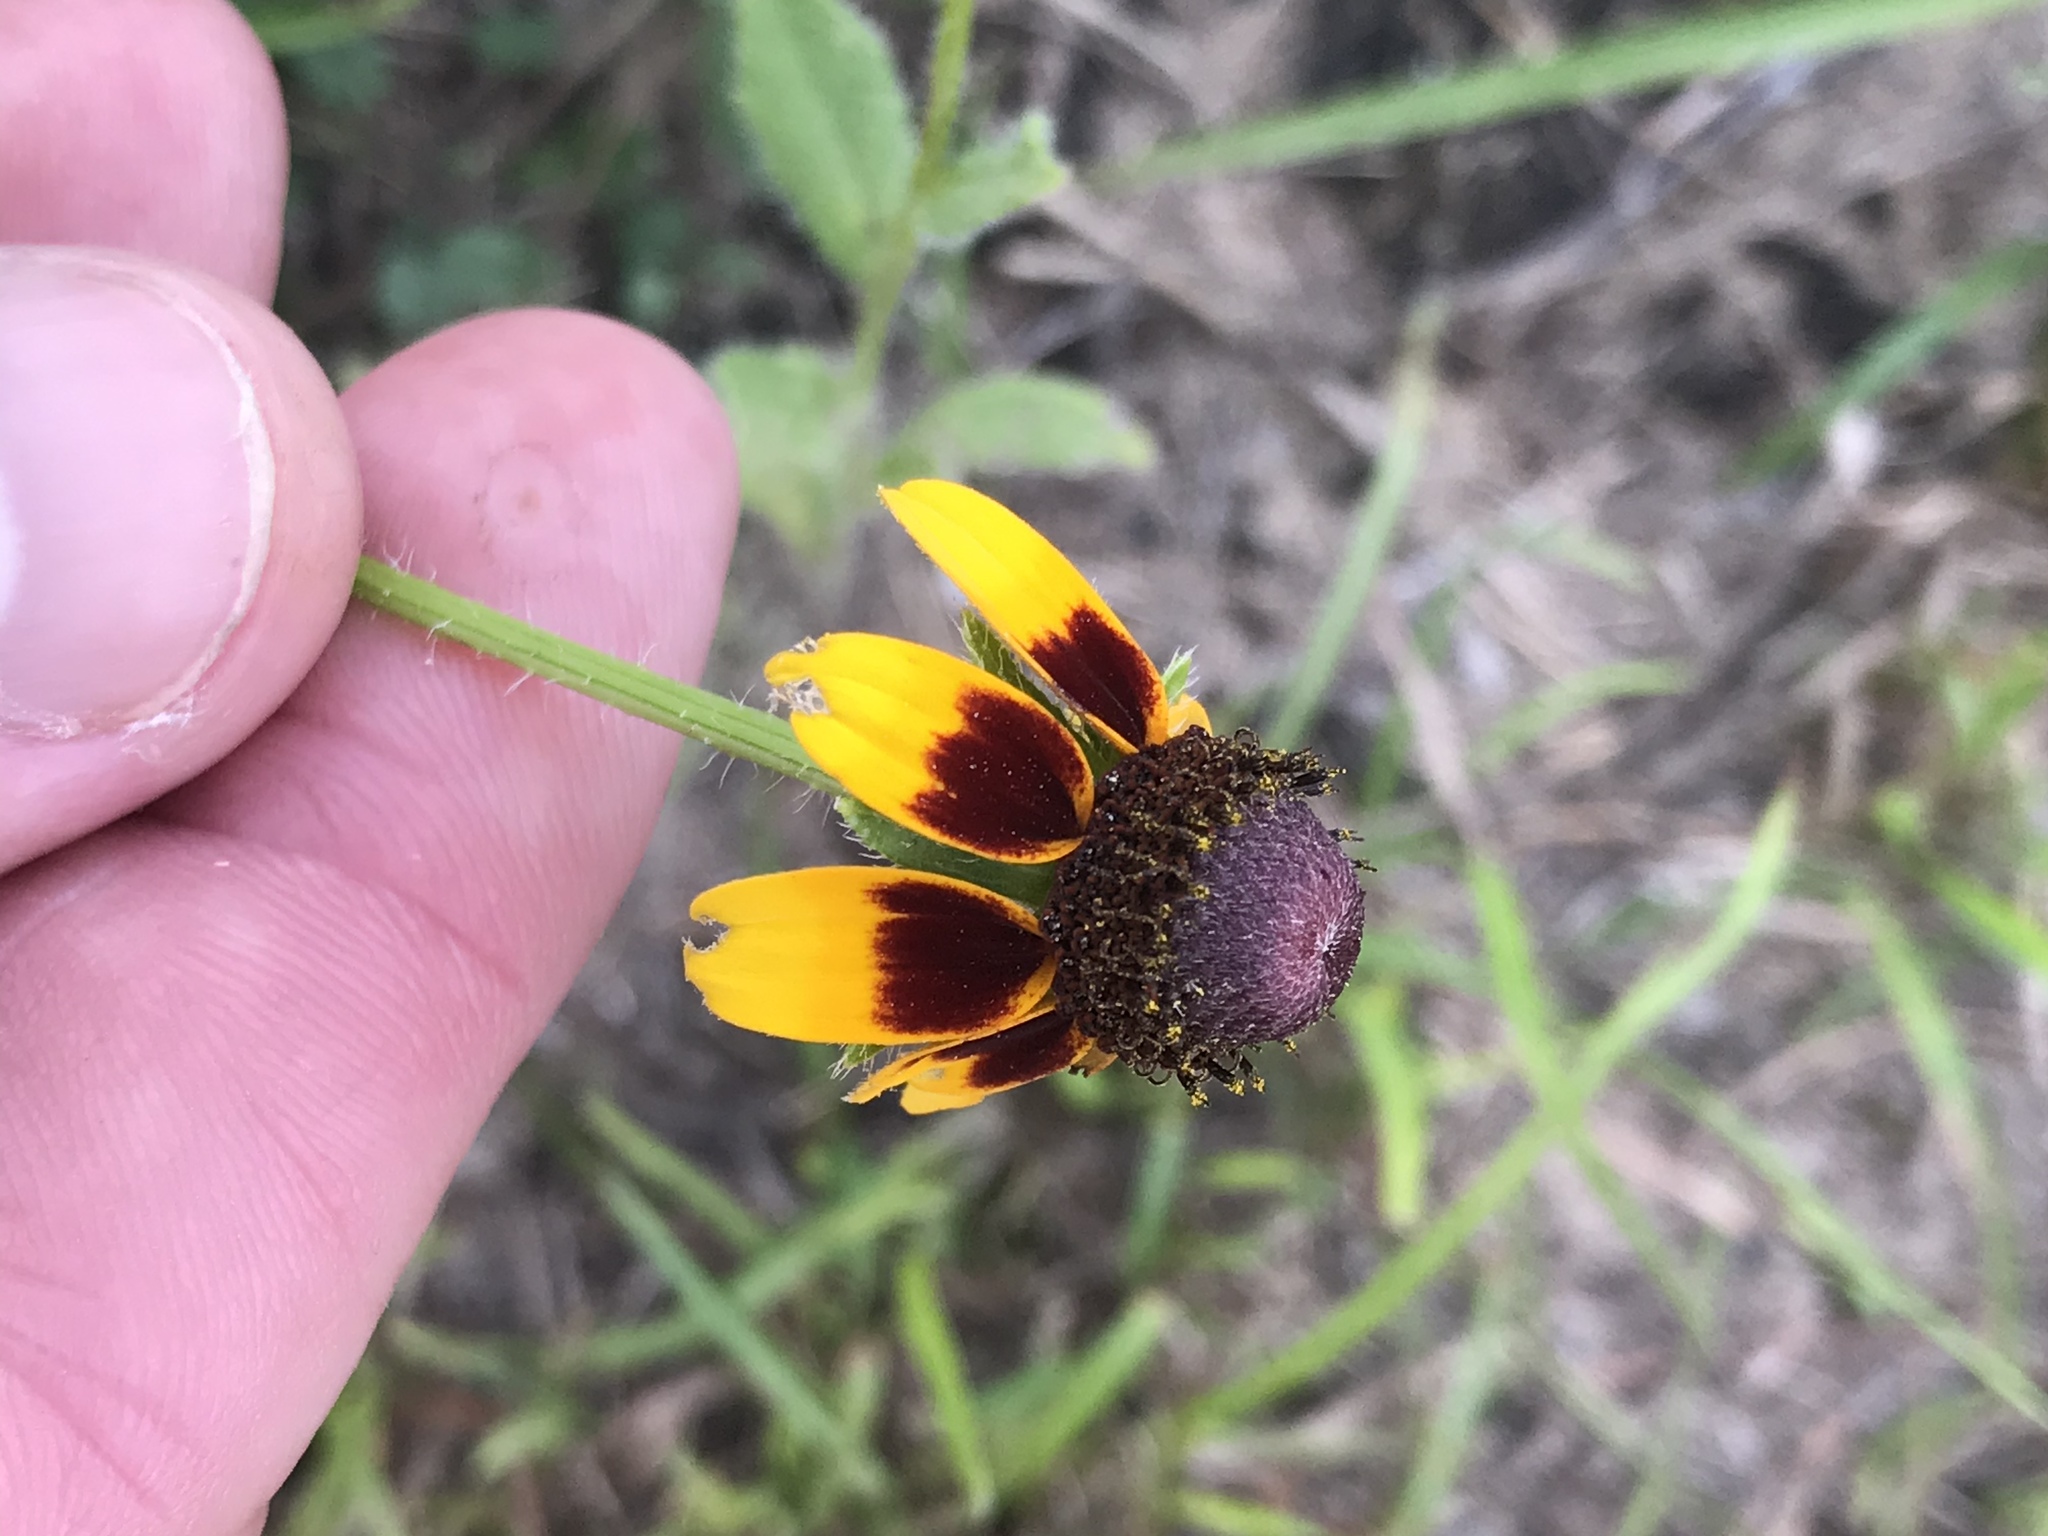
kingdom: Plantae
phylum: Tracheophyta
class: Magnoliopsida
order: Asterales
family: Asteraceae
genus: Rudbeckia
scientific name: Rudbeckia hirta
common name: Black-eyed-susan
